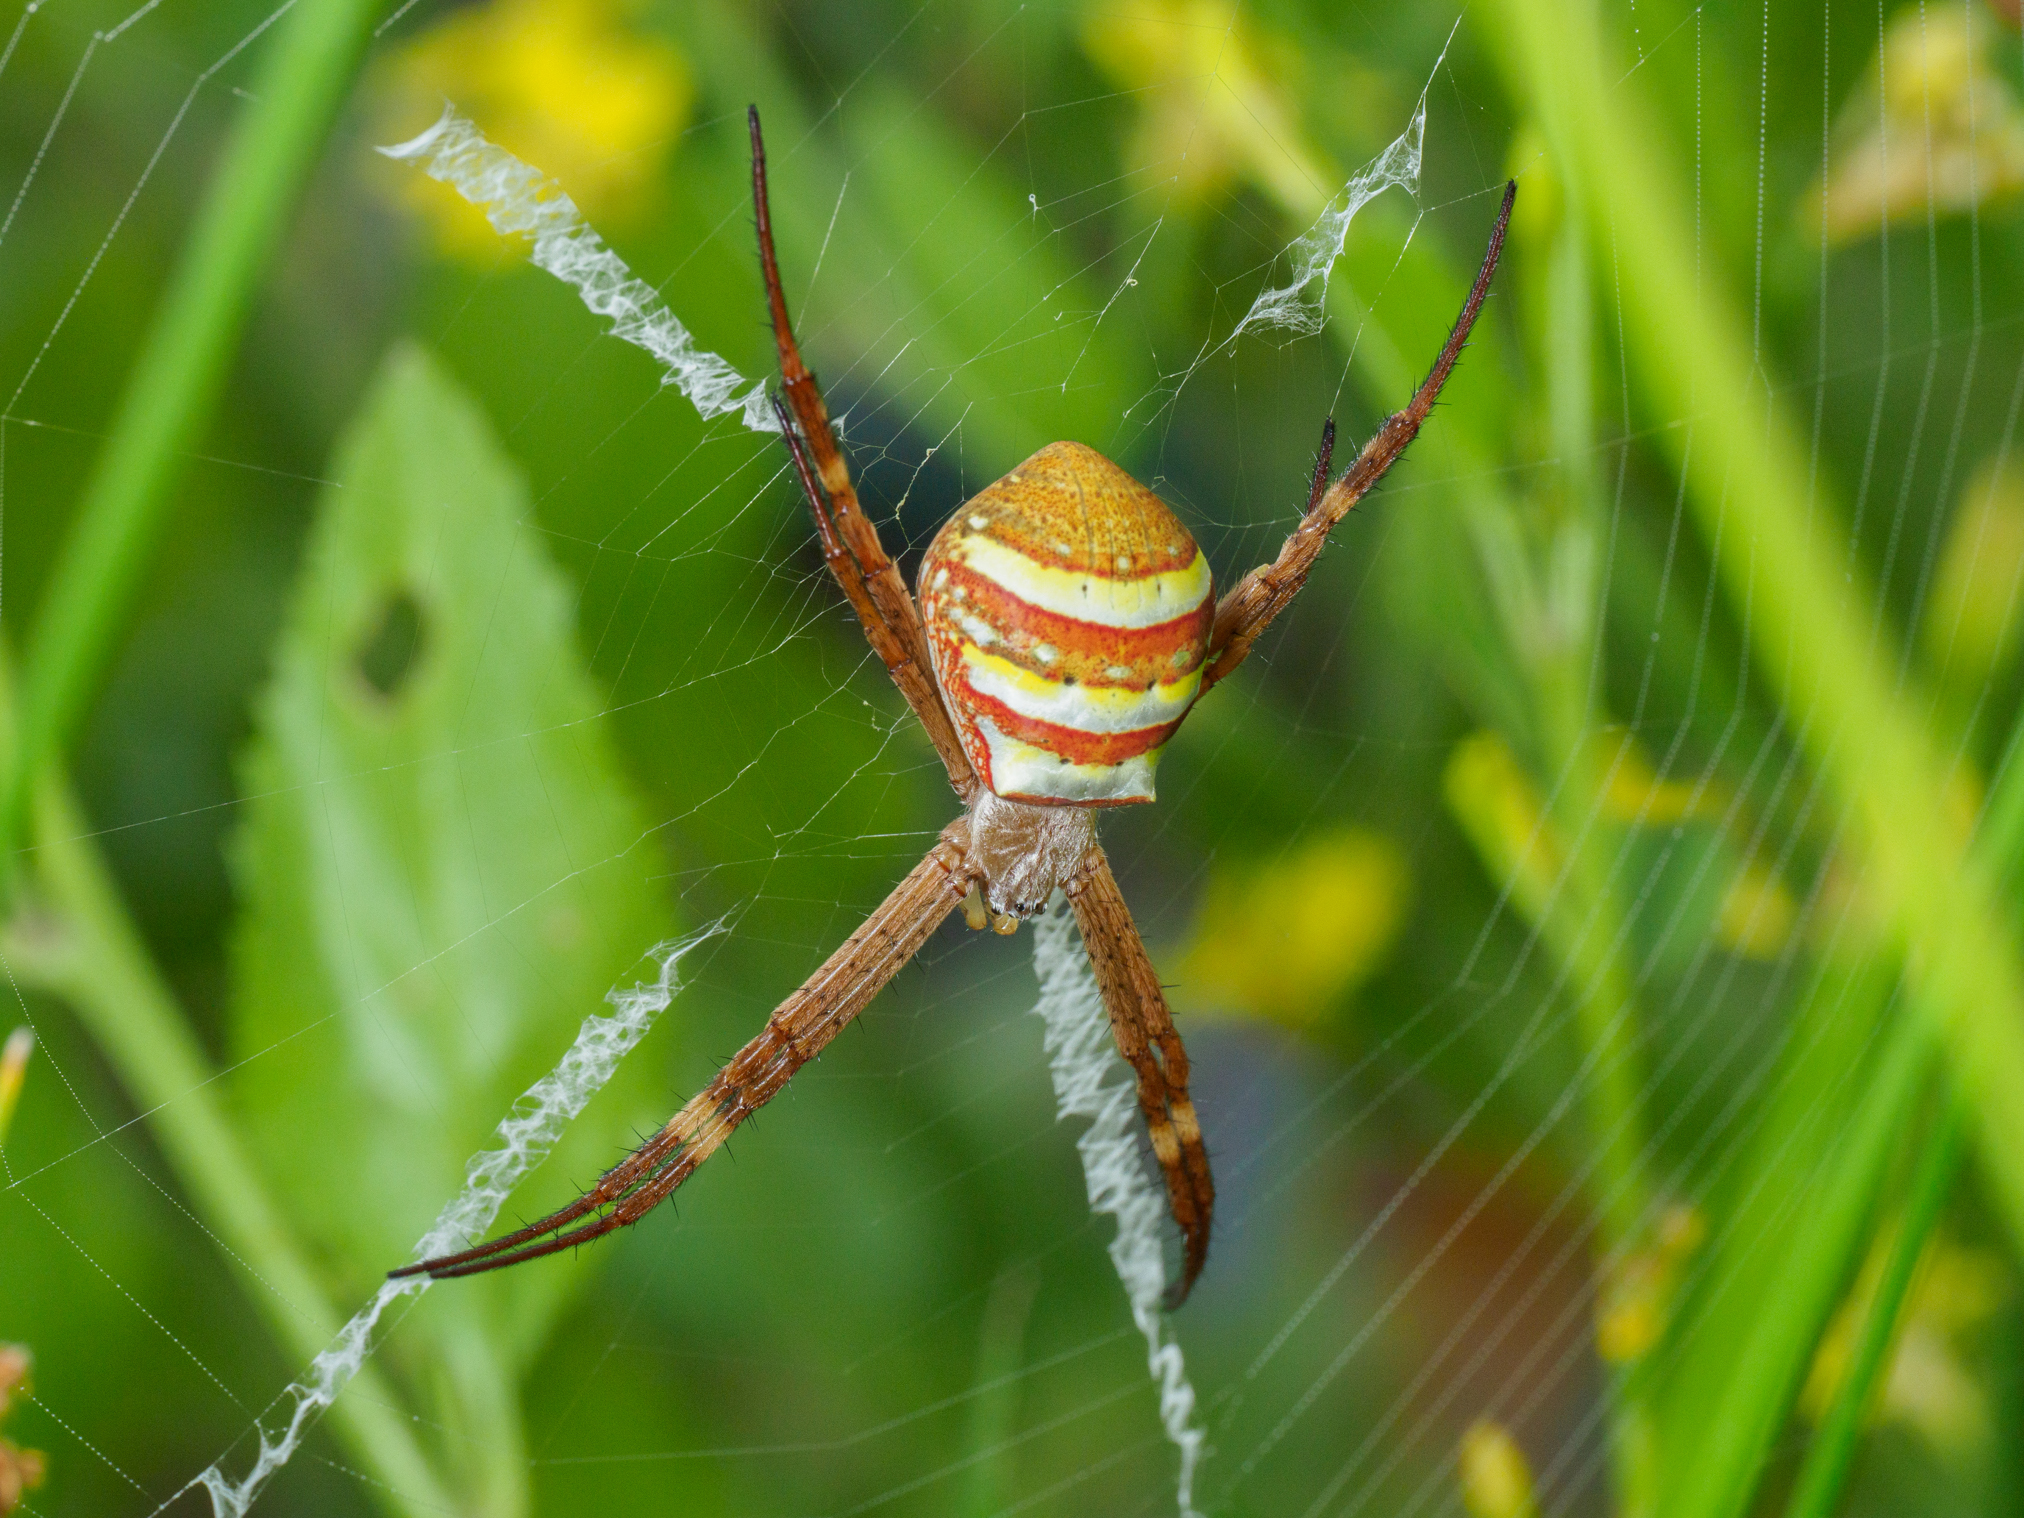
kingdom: Animalia
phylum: Arthropoda
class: Arachnida
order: Araneae
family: Araneidae
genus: Argiope
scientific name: Argiope keyserlingi
